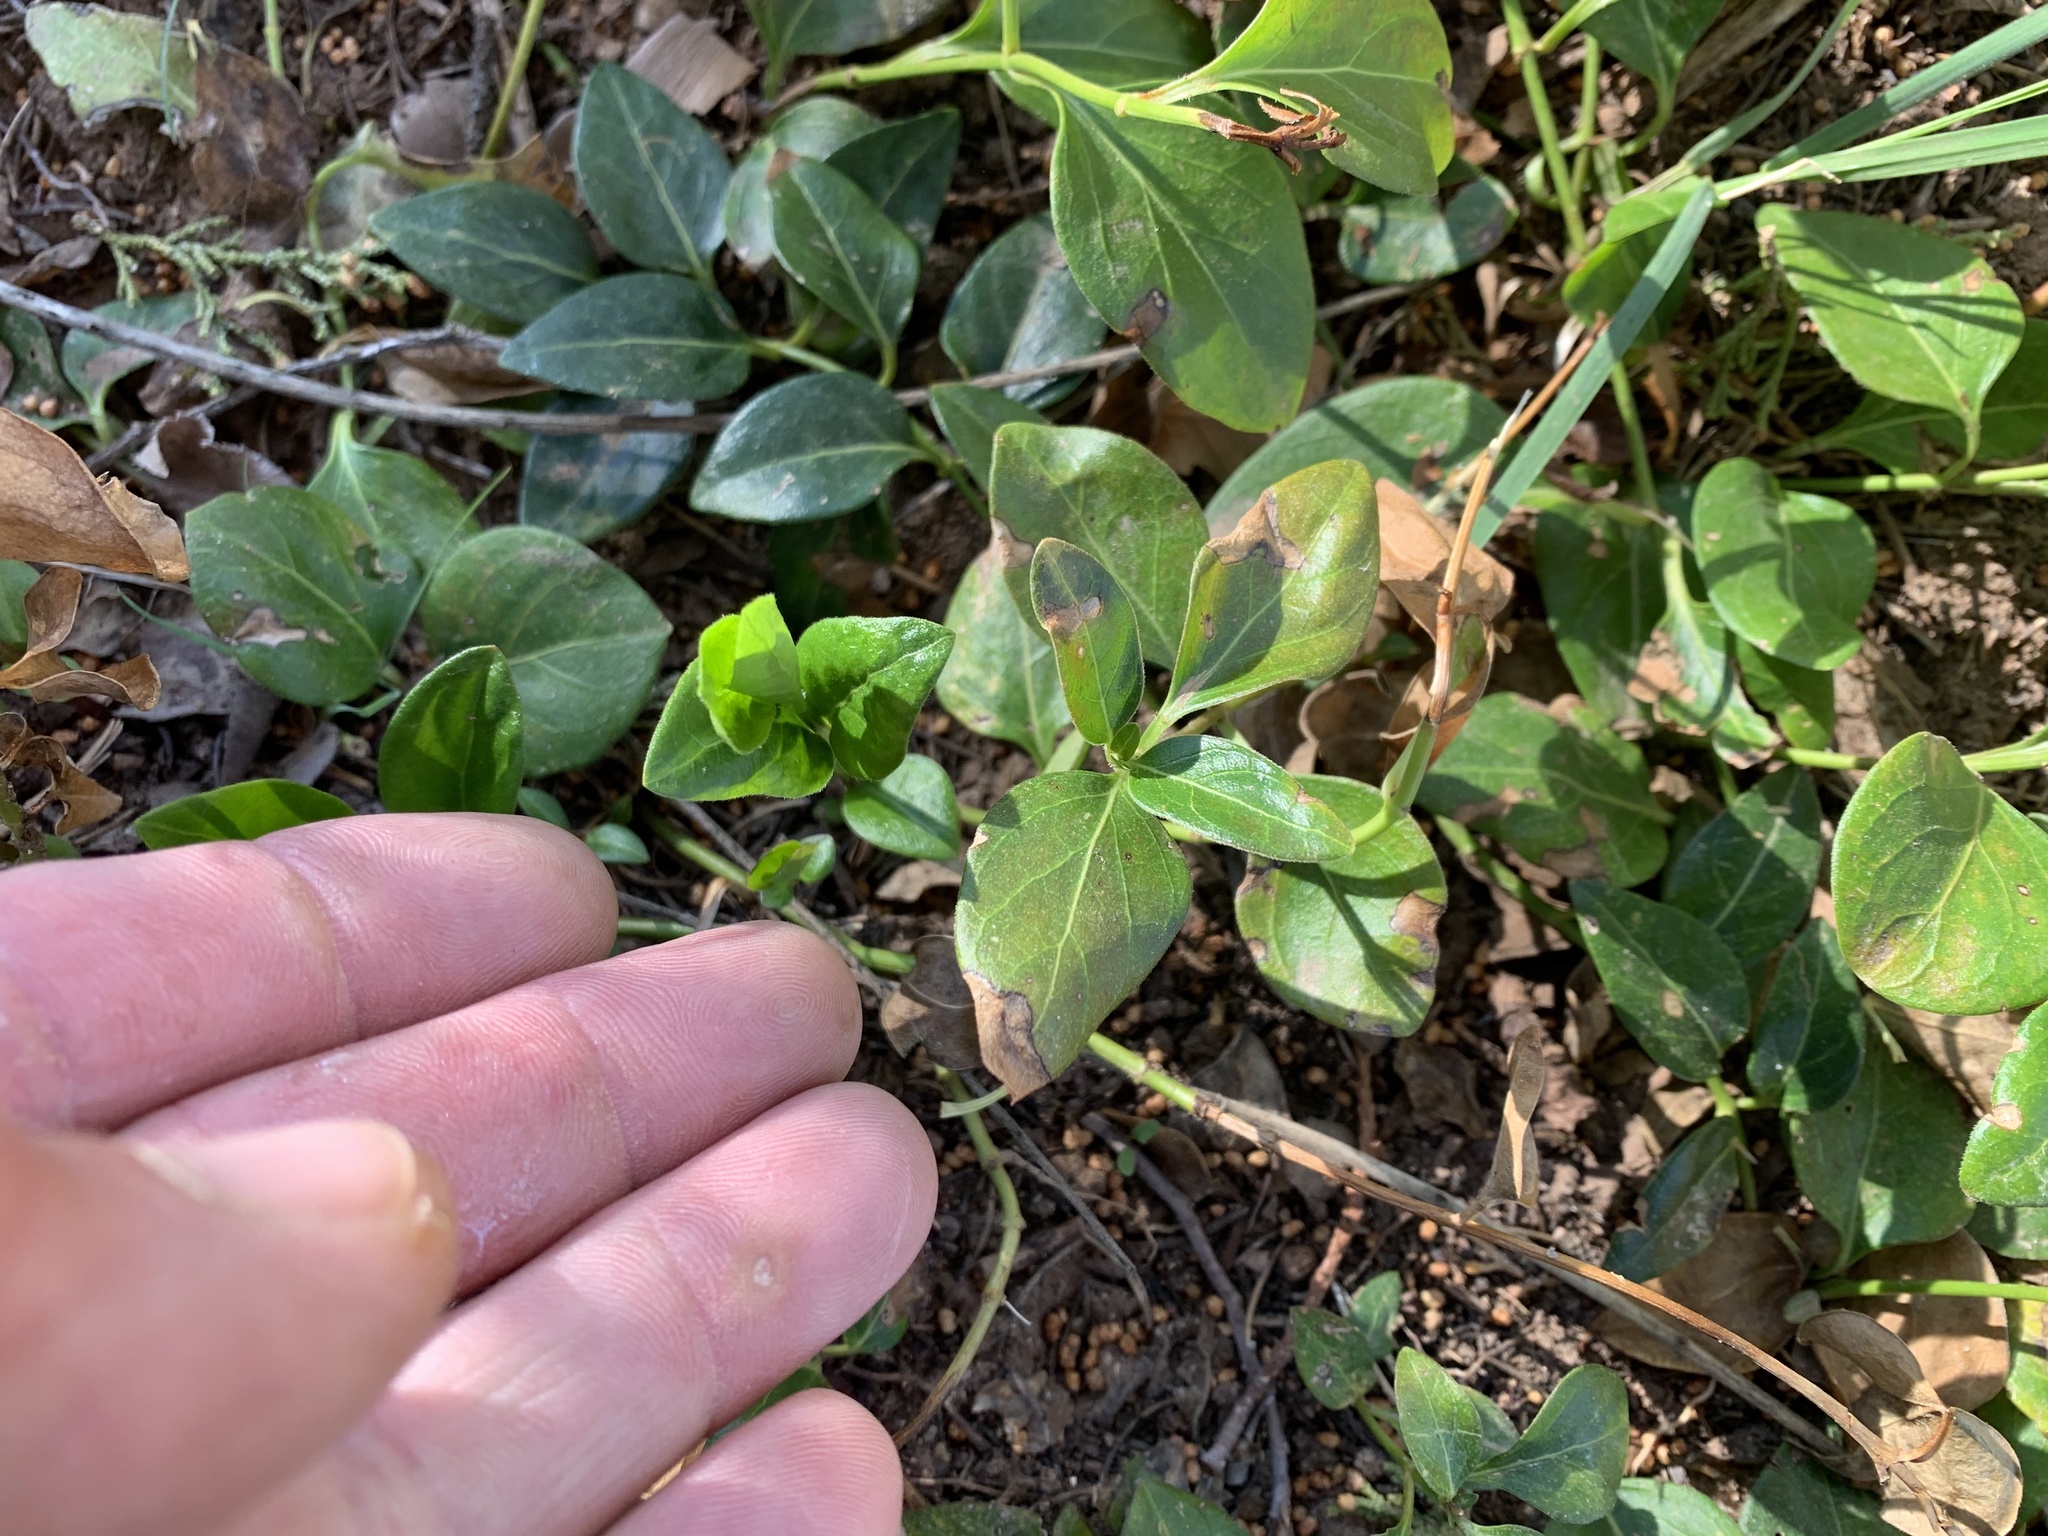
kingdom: Plantae
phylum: Tracheophyta
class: Magnoliopsida
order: Gentianales
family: Apocynaceae
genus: Vinca
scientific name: Vinca major
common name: Greater periwinkle
